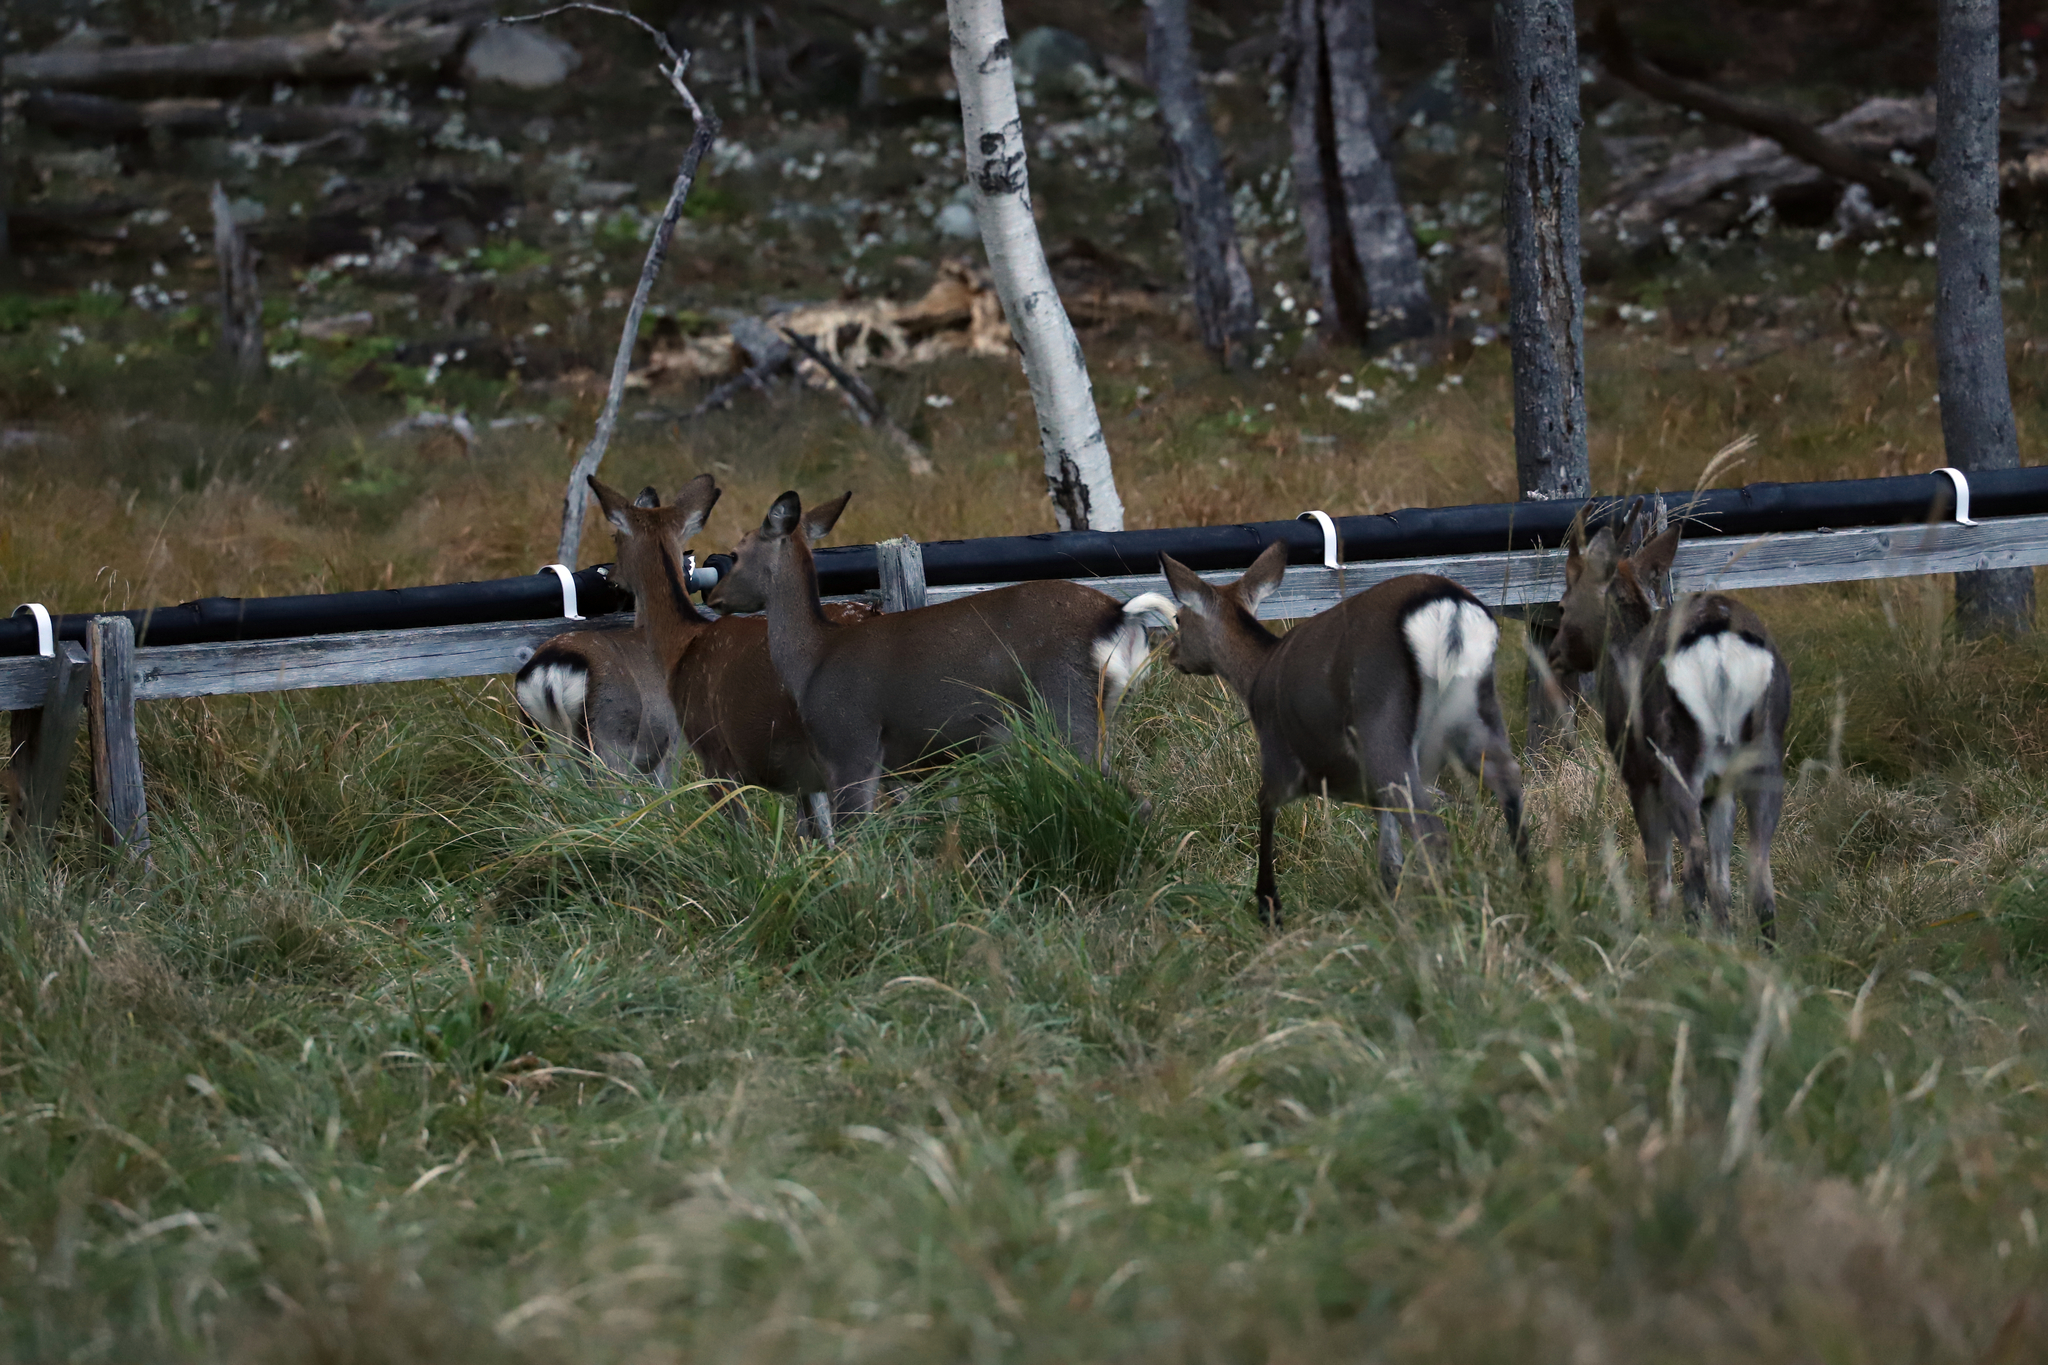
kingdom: Animalia
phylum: Chordata
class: Mammalia
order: Artiodactyla
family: Cervidae
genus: Cervus
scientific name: Cervus nippon
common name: Sika deer
